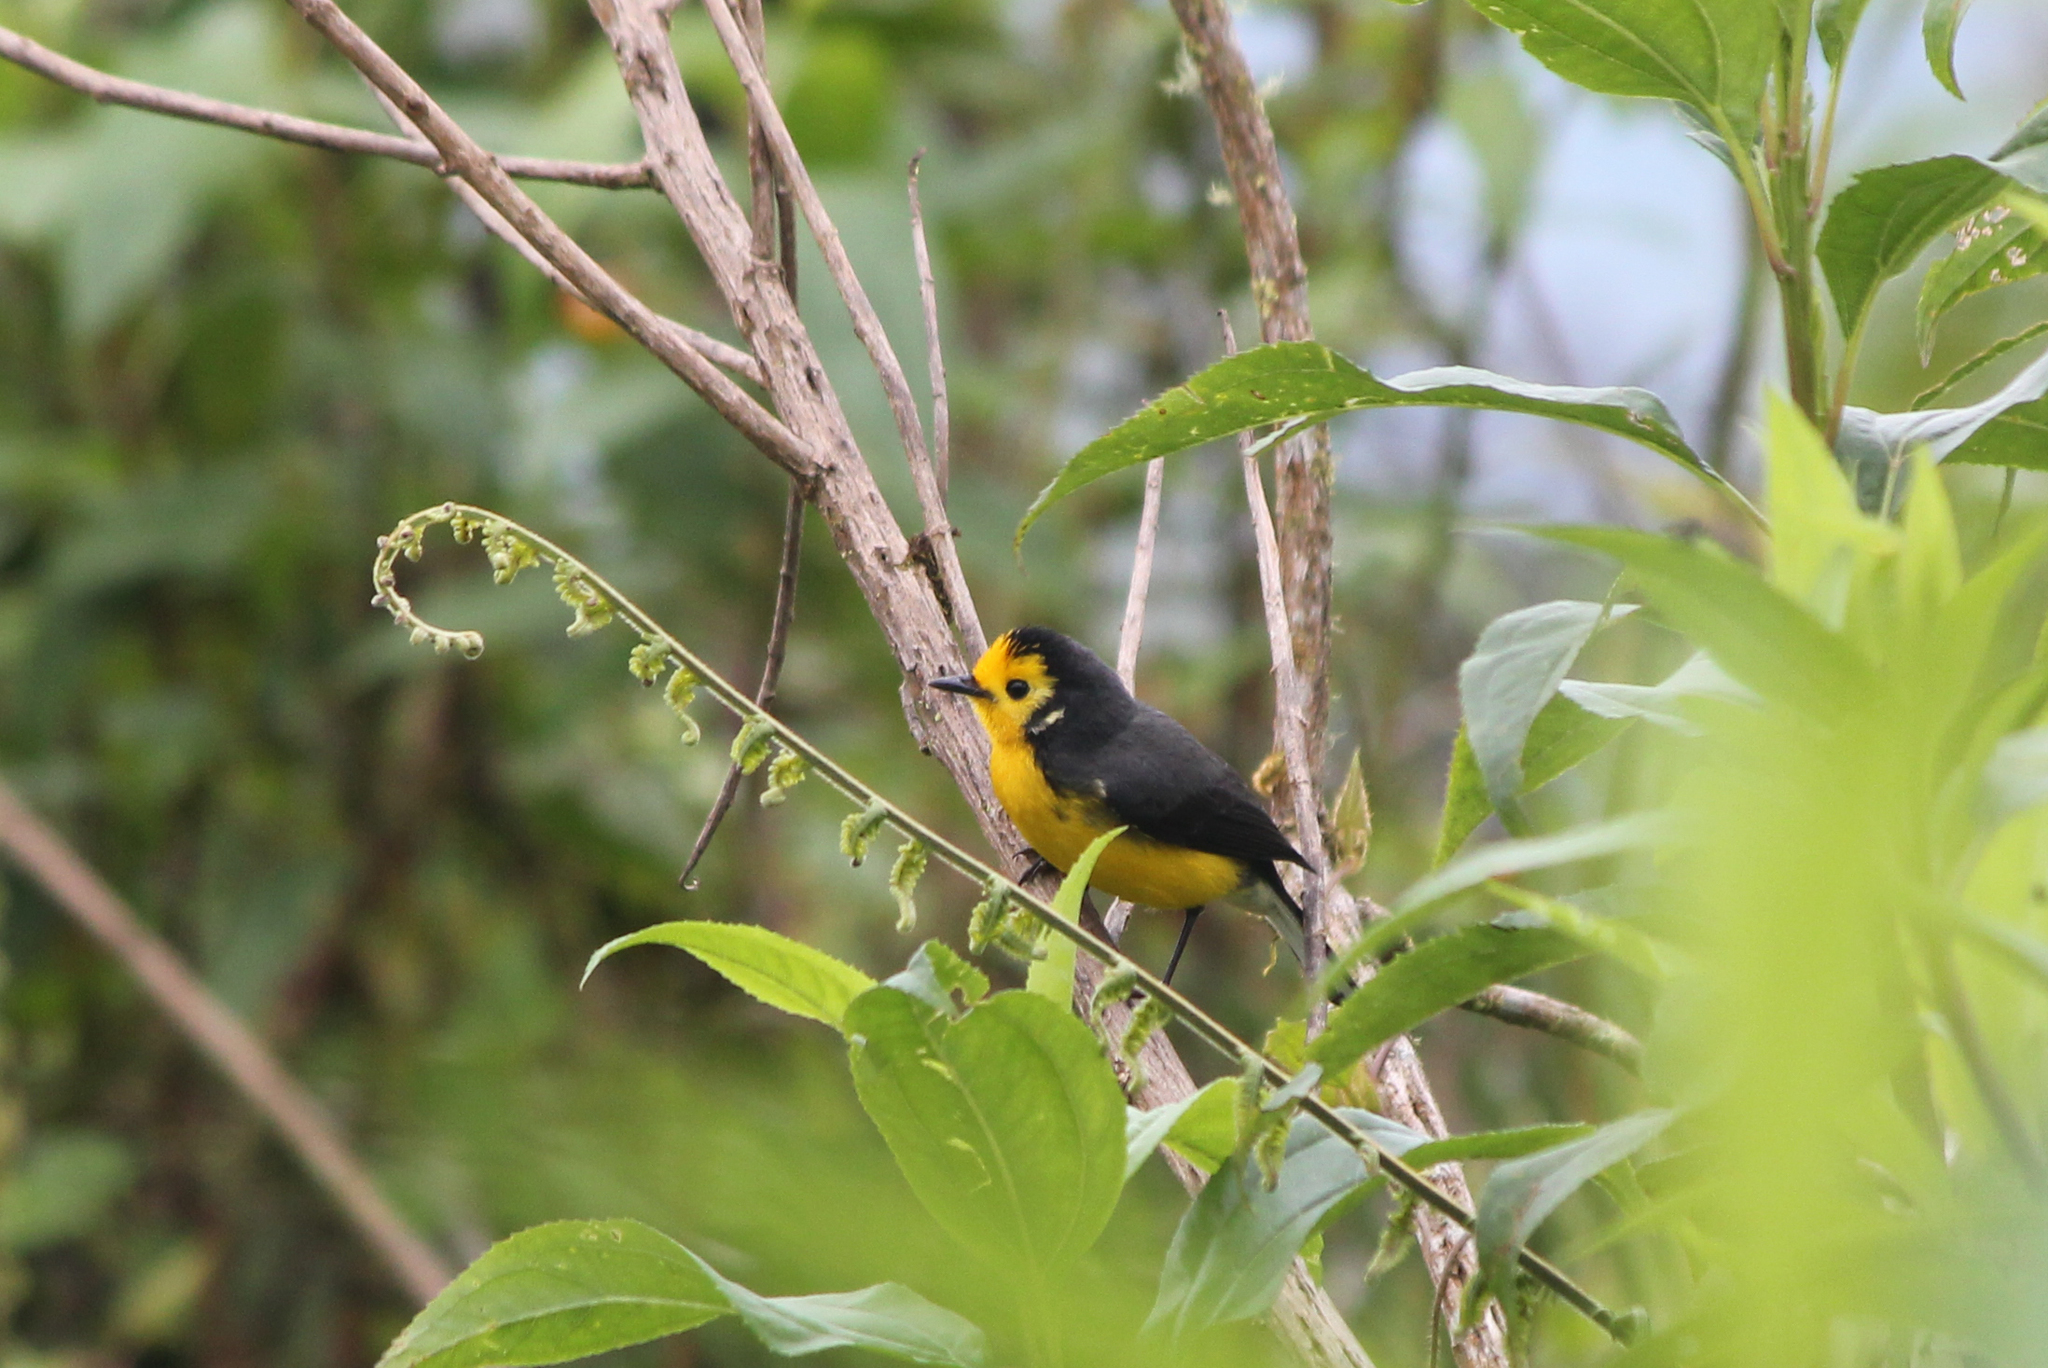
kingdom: Animalia
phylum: Chordata
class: Aves
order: Passeriformes
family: Parulidae
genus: Myioborus
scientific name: Myioborus ornatus
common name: Golden-fronted whitestart
